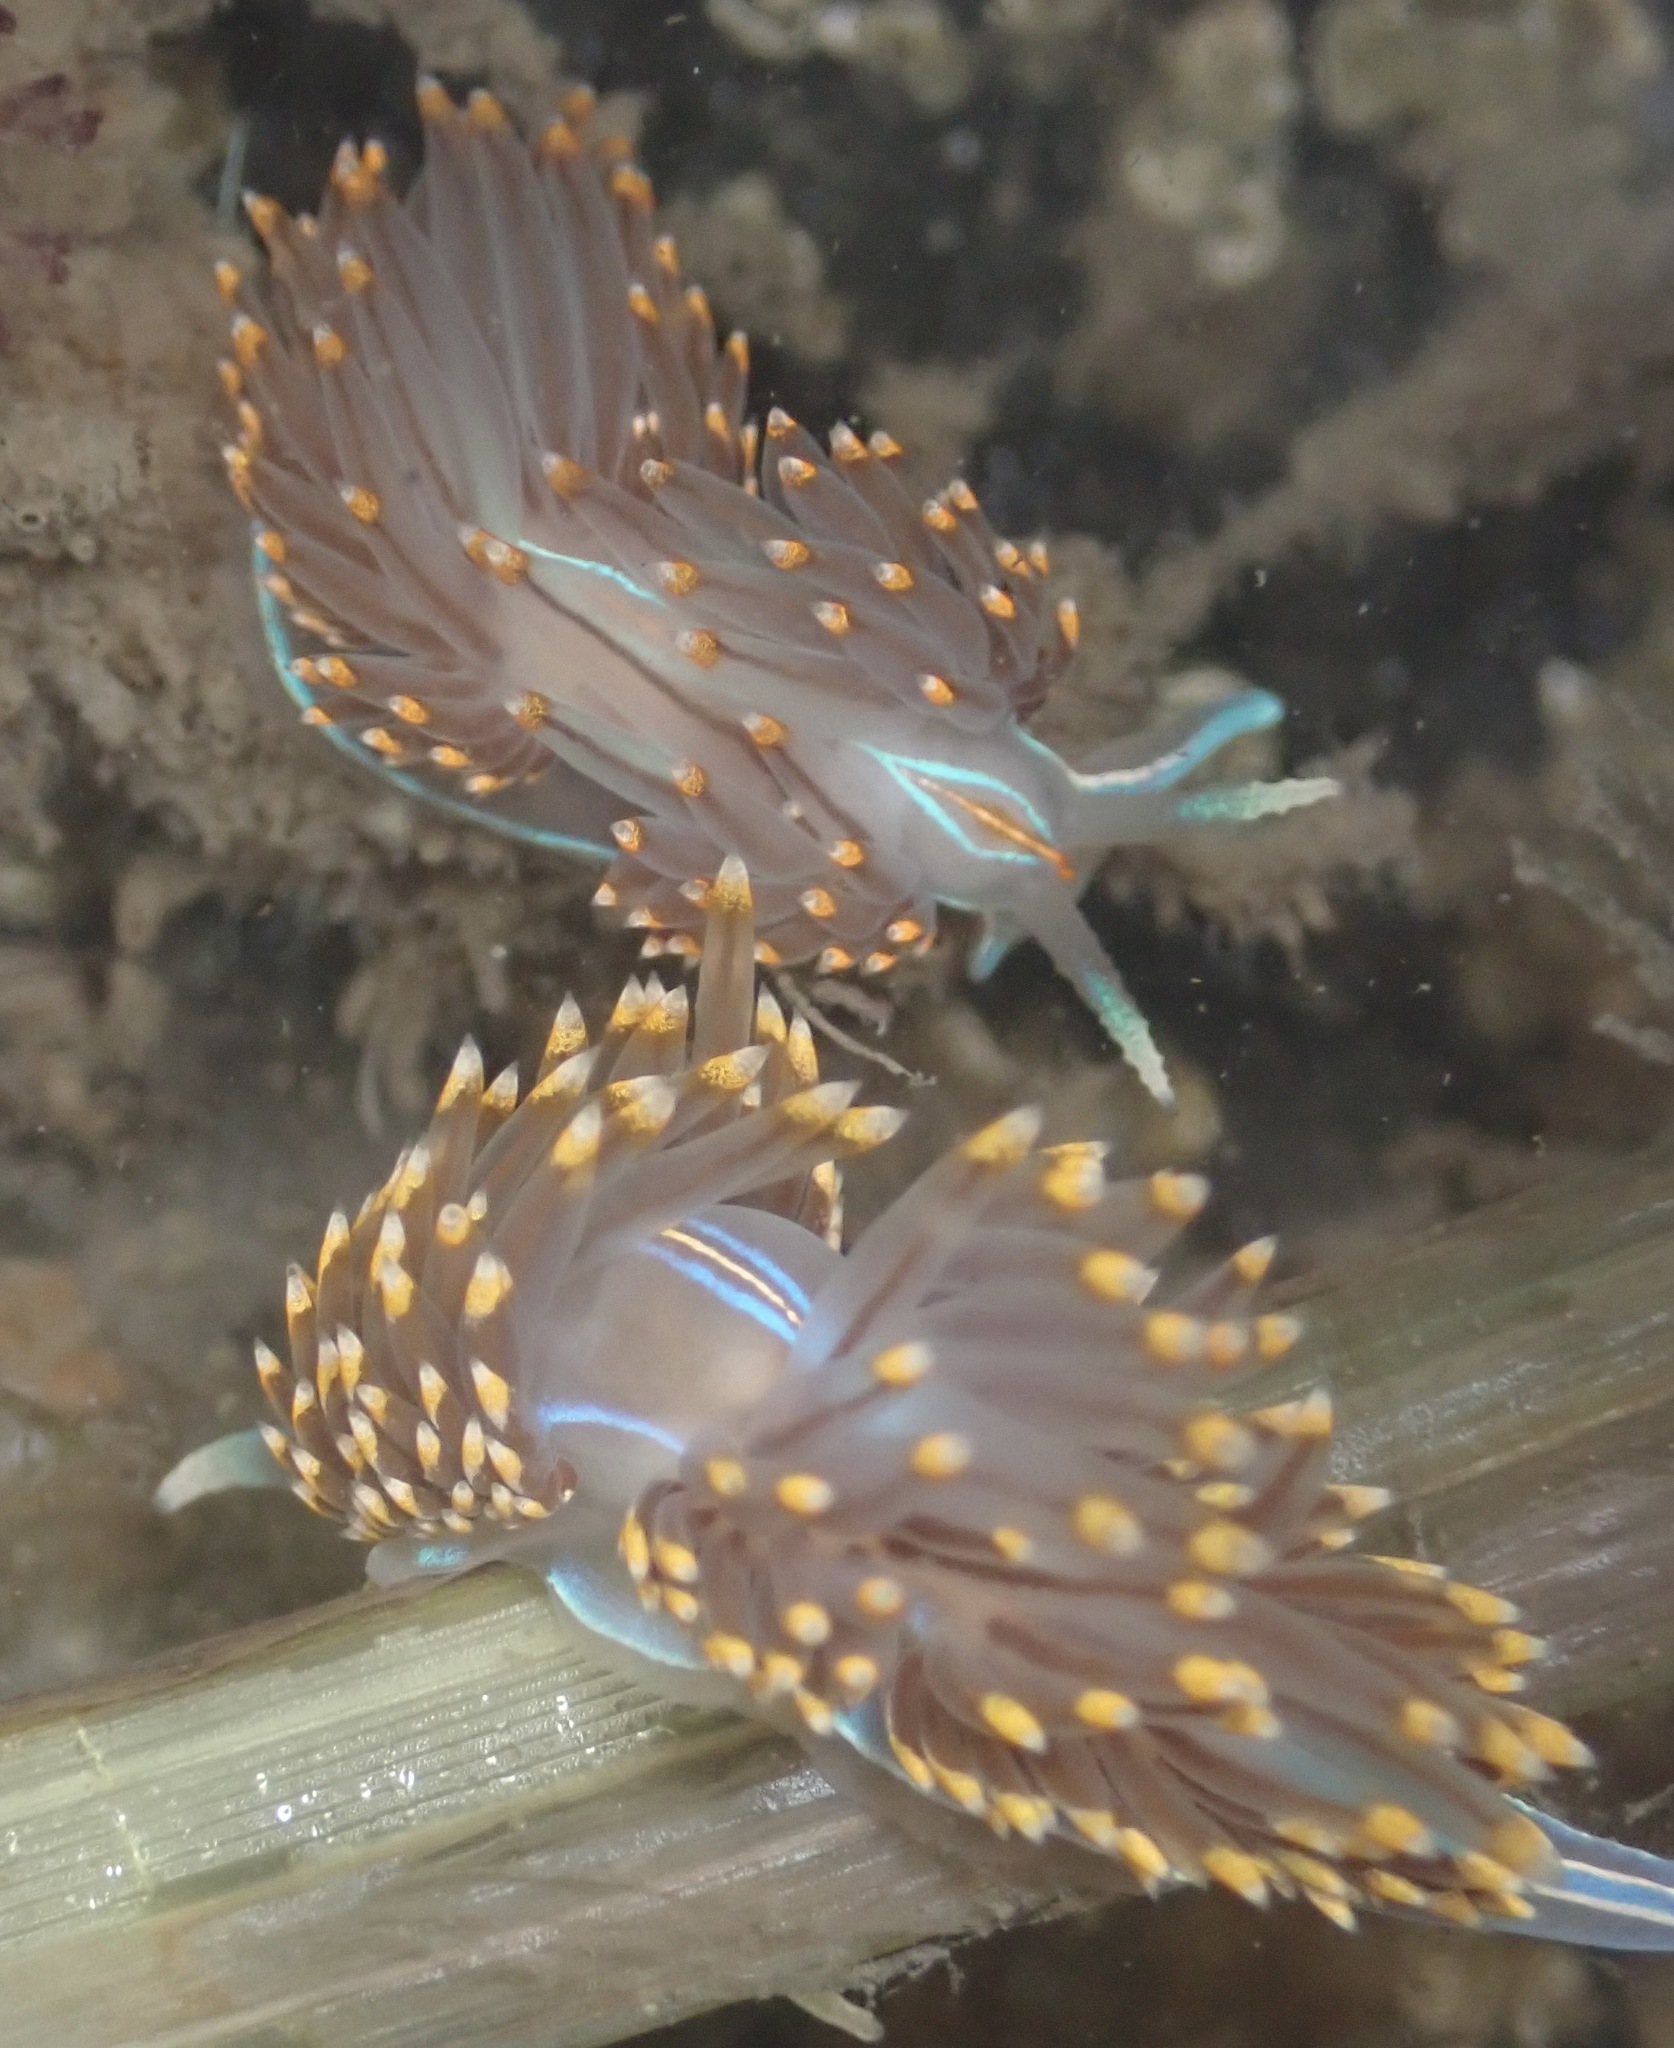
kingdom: Animalia
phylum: Mollusca
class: Gastropoda
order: Nudibranchia
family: Myrrhinidae
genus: Hermissenda
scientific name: Hermissenda opalescens
